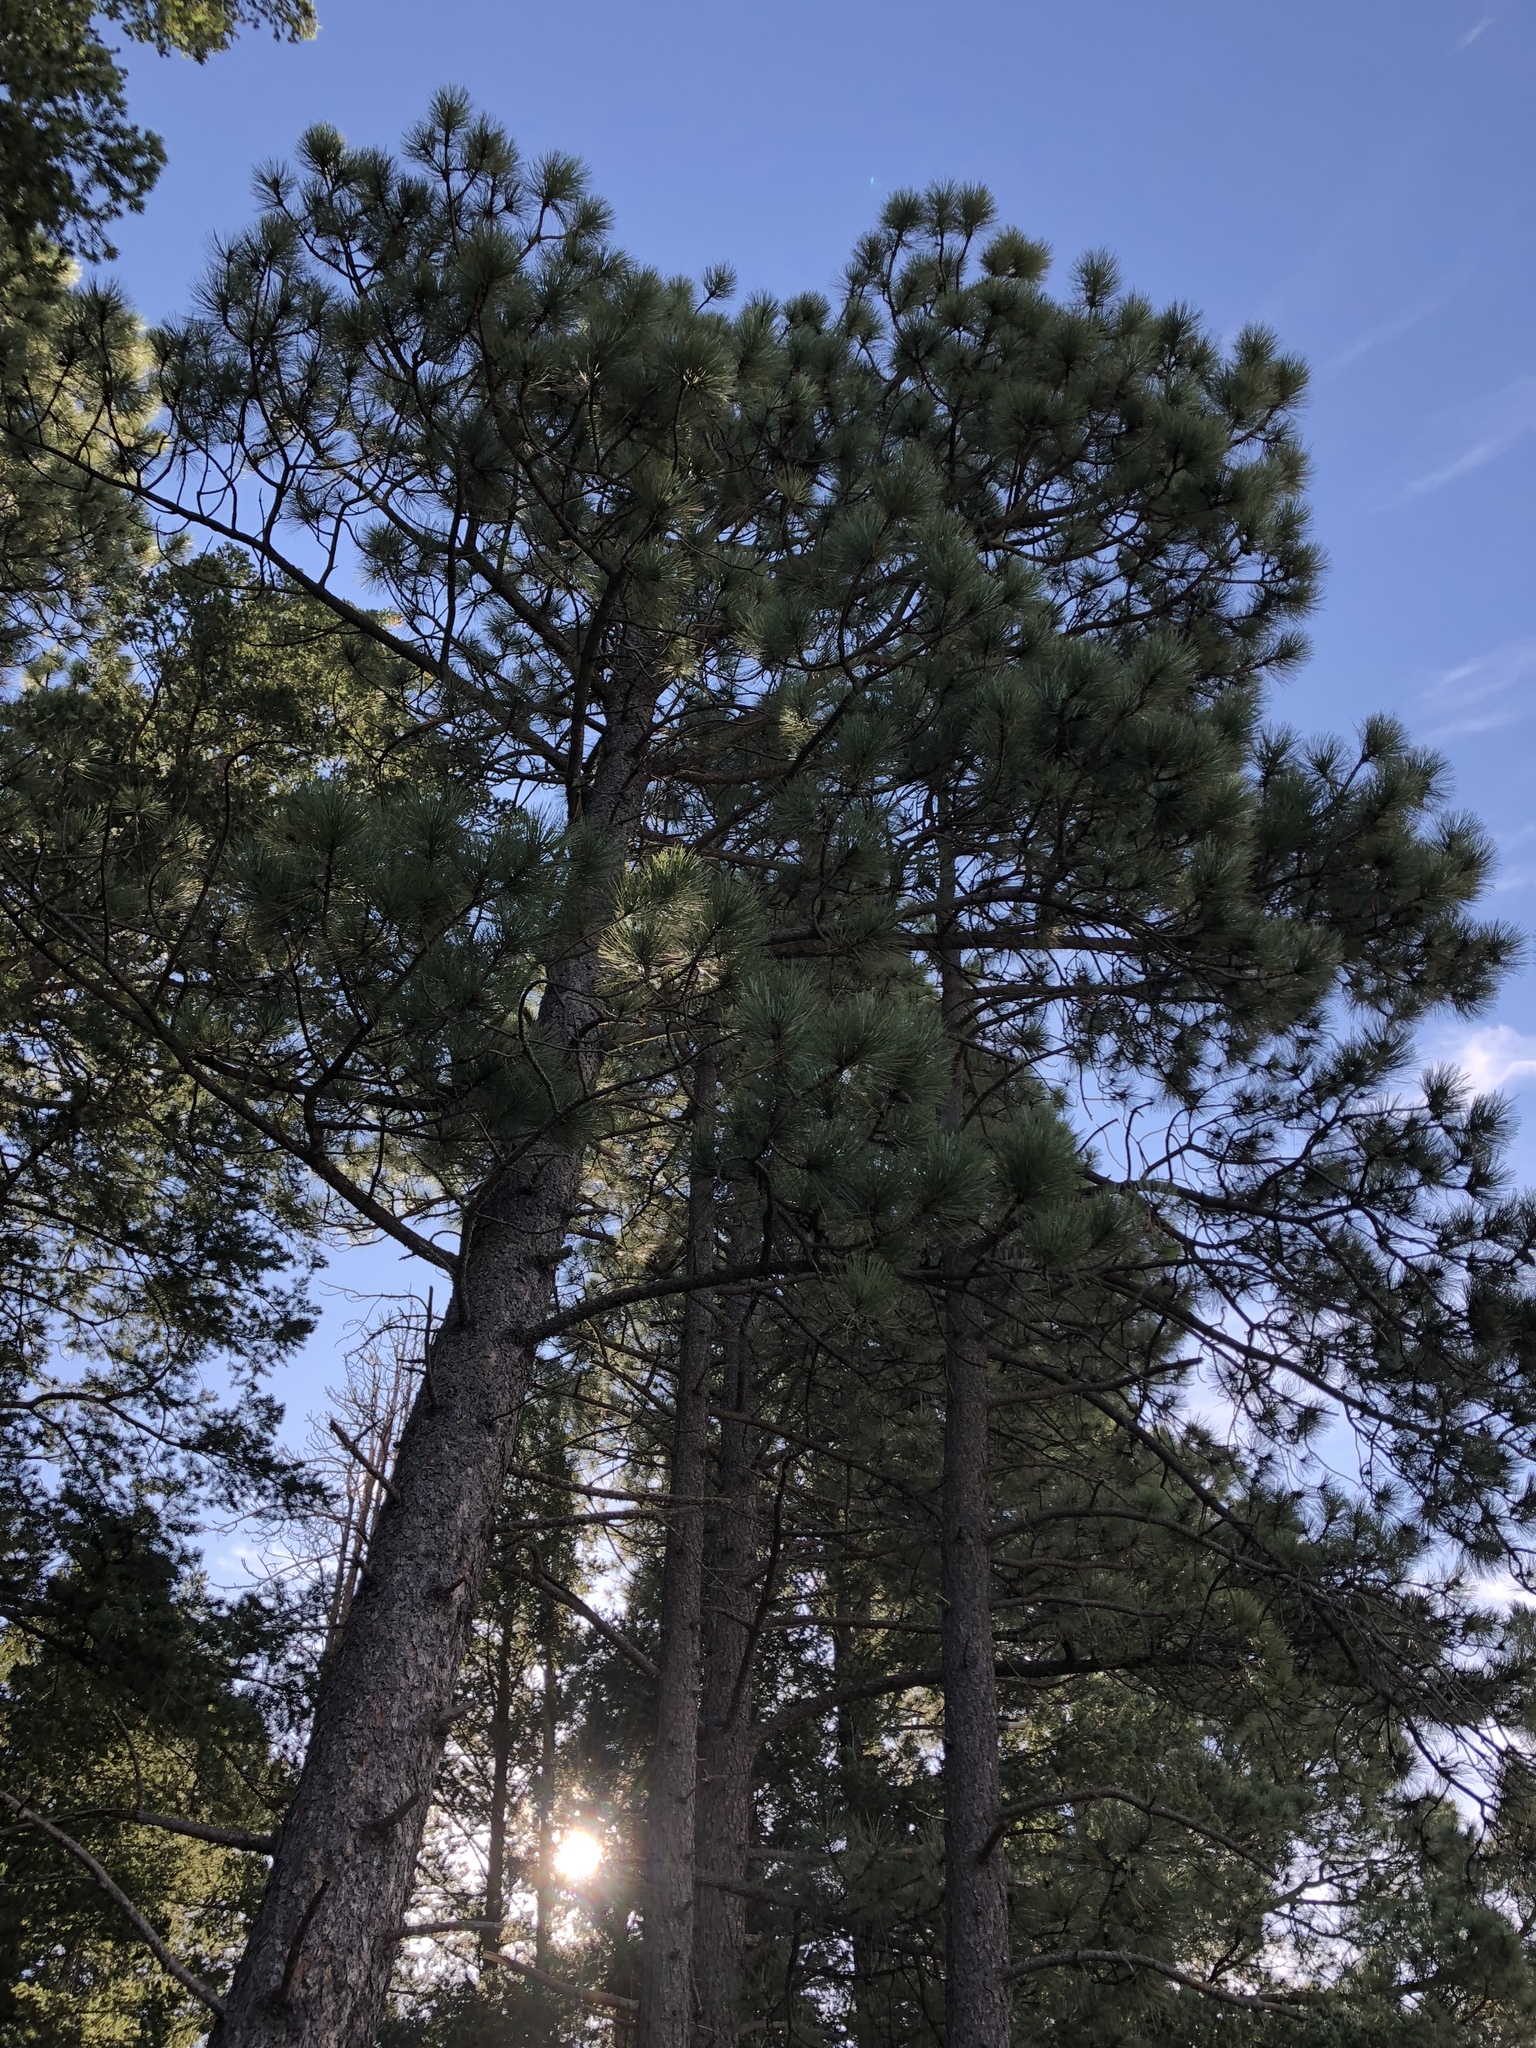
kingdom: Plantae
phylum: Tracheophyta
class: Pinopsida
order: Pinales
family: Pinaceae
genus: Pinus
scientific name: Pinus ponderosa
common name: Western yellow-pine
